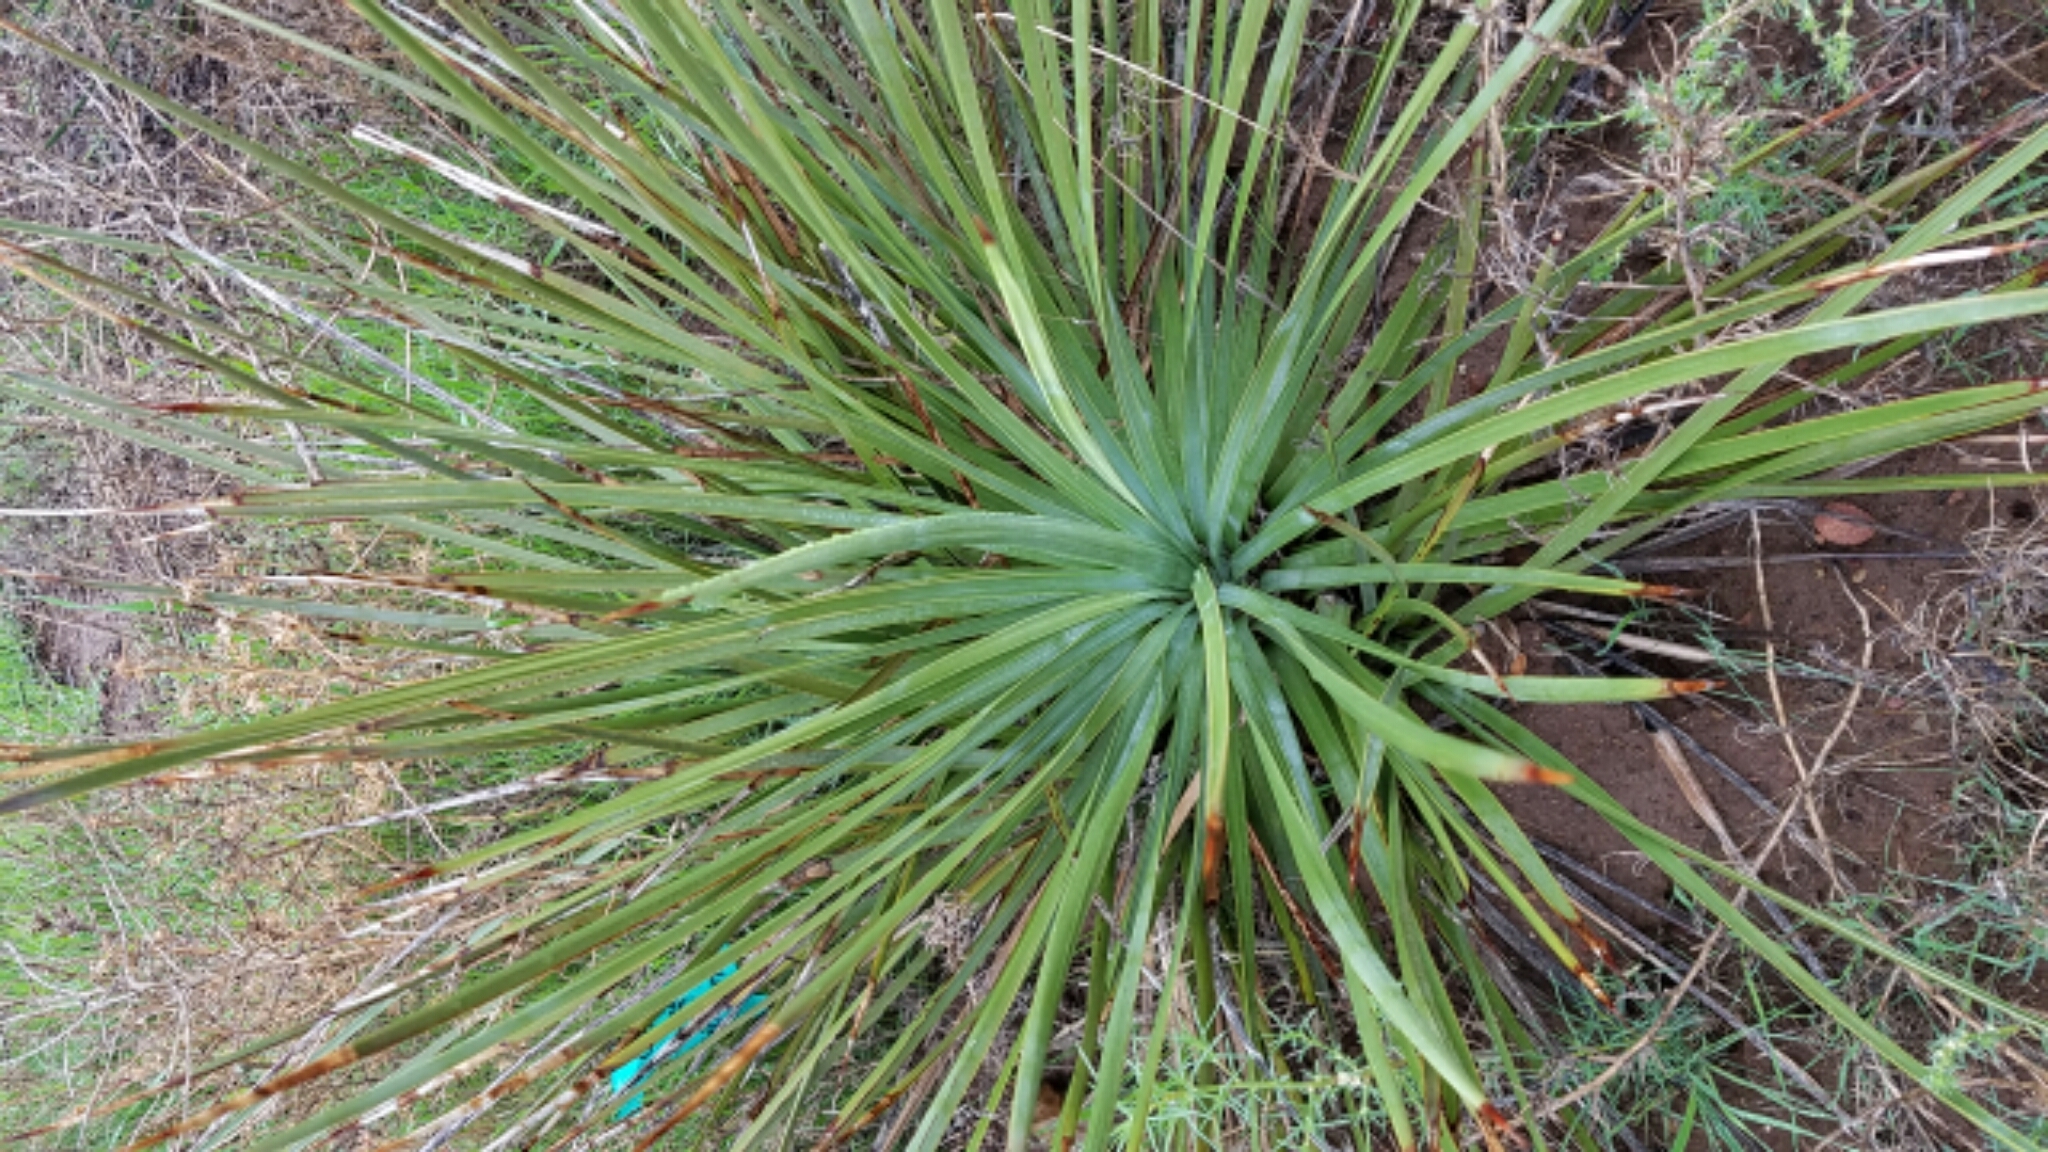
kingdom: Plantae
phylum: Tracheophyta
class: Liliopsida
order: Asparagales
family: Asparagaceae
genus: Hesperoyucca
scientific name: Hesperoyucca whipplei
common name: Our lord's-candle
